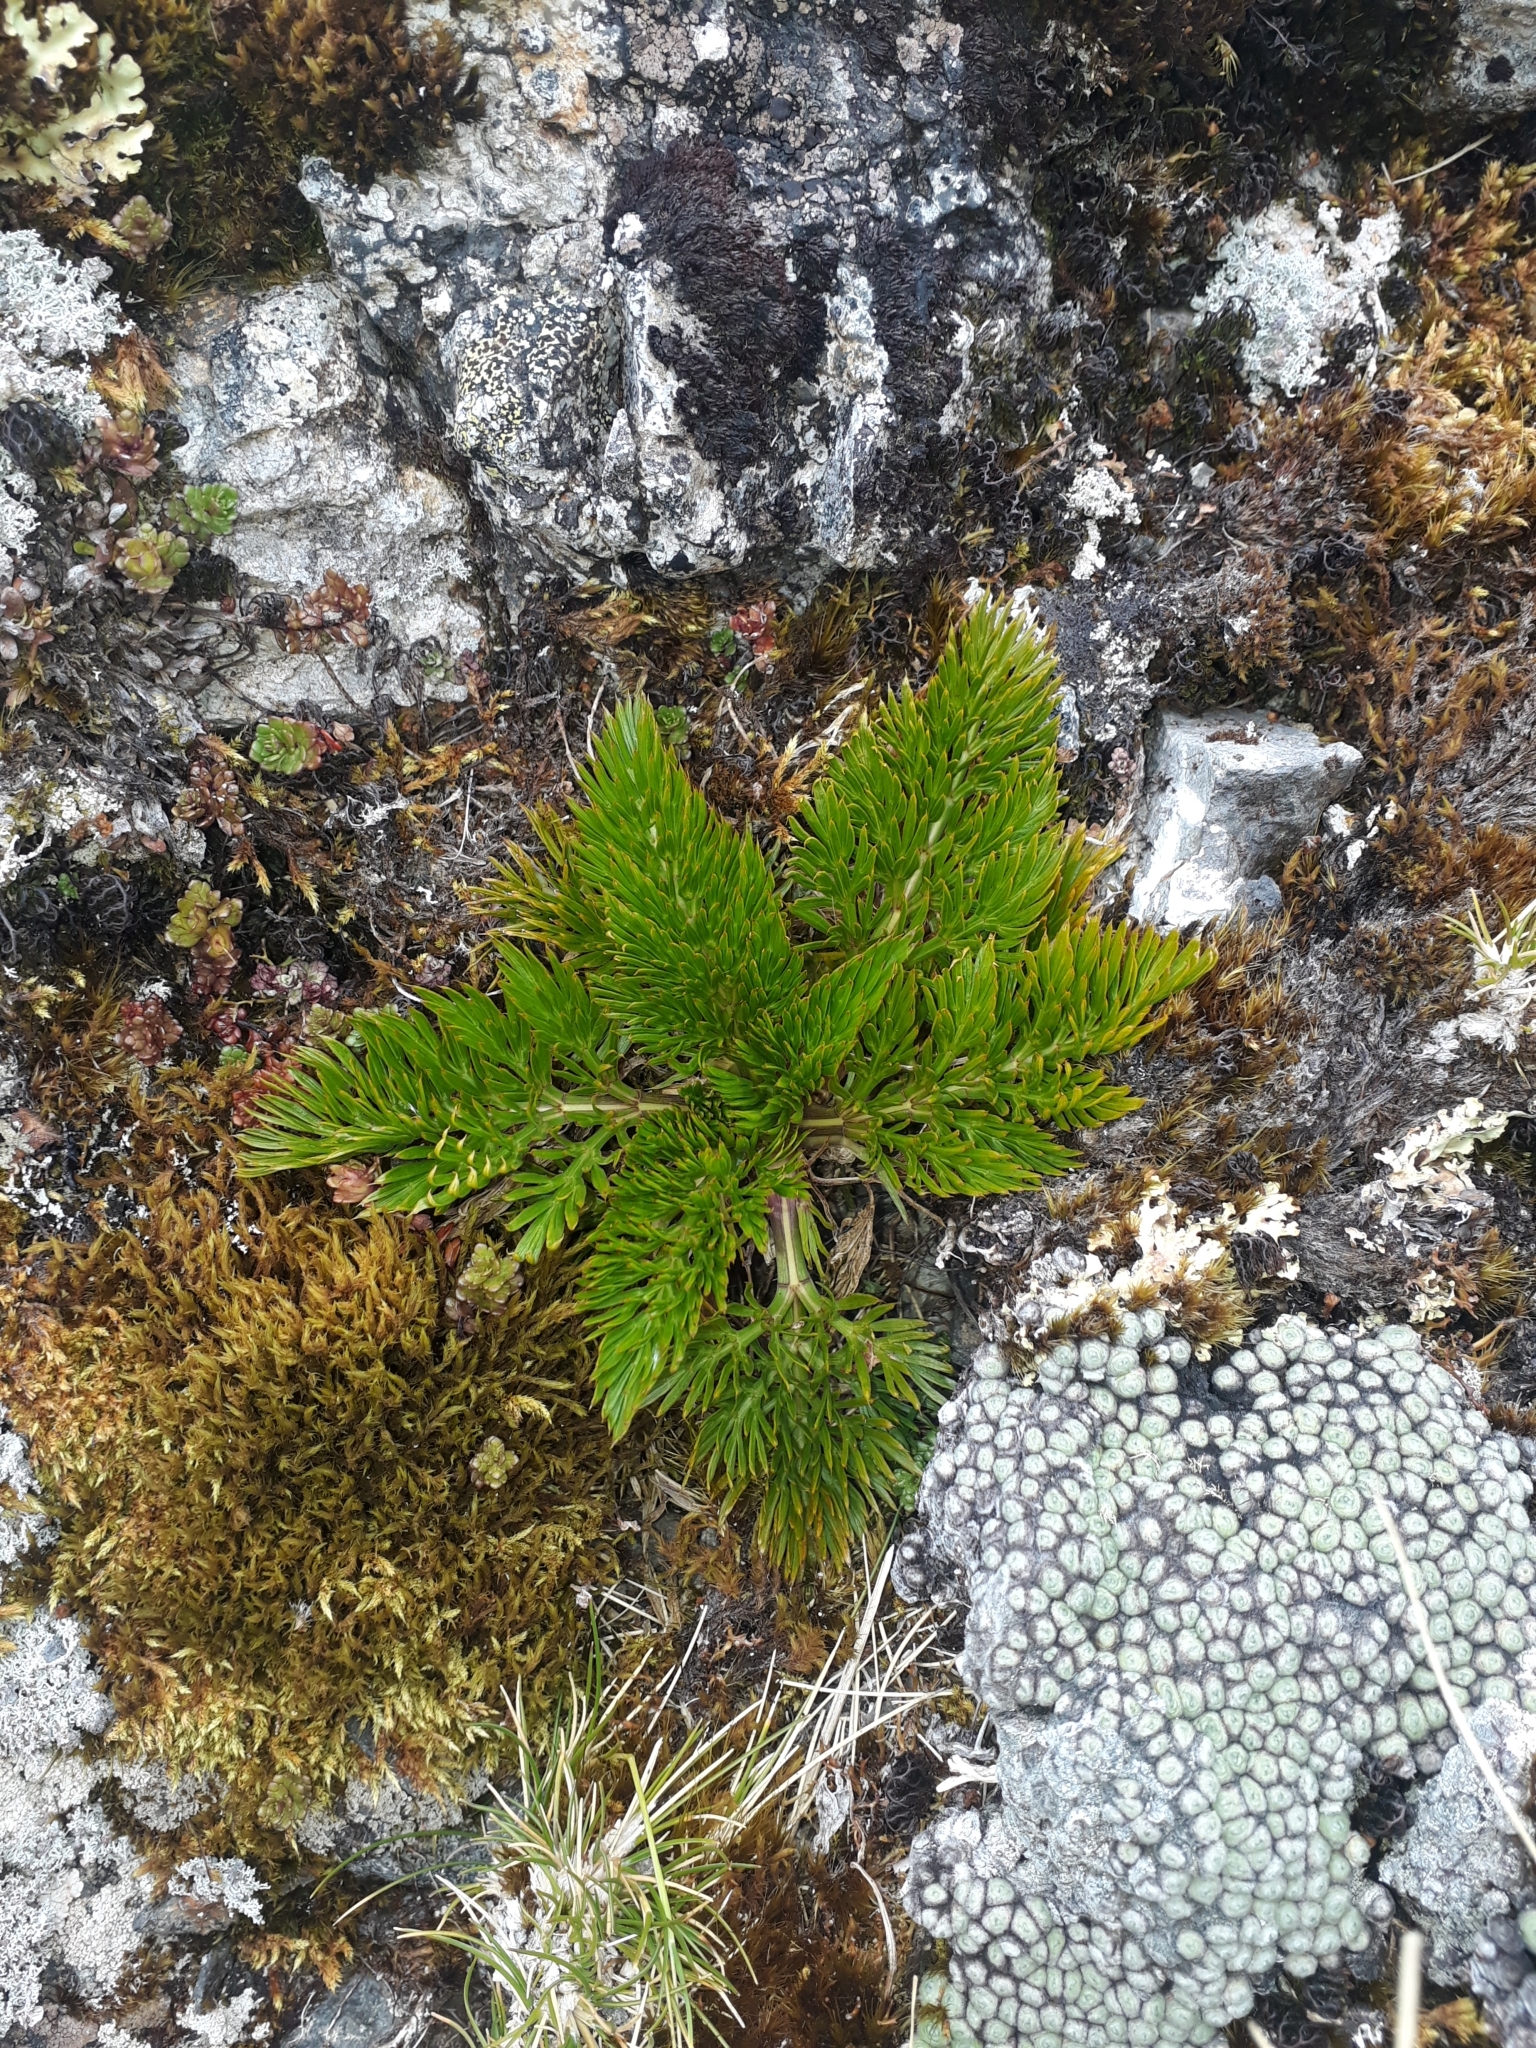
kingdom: Plantae
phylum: Tracheophyta
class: Magnoliopsida
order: Apiales
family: Apiaceae
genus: Aciphylla
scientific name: Aciphylla dissecta
